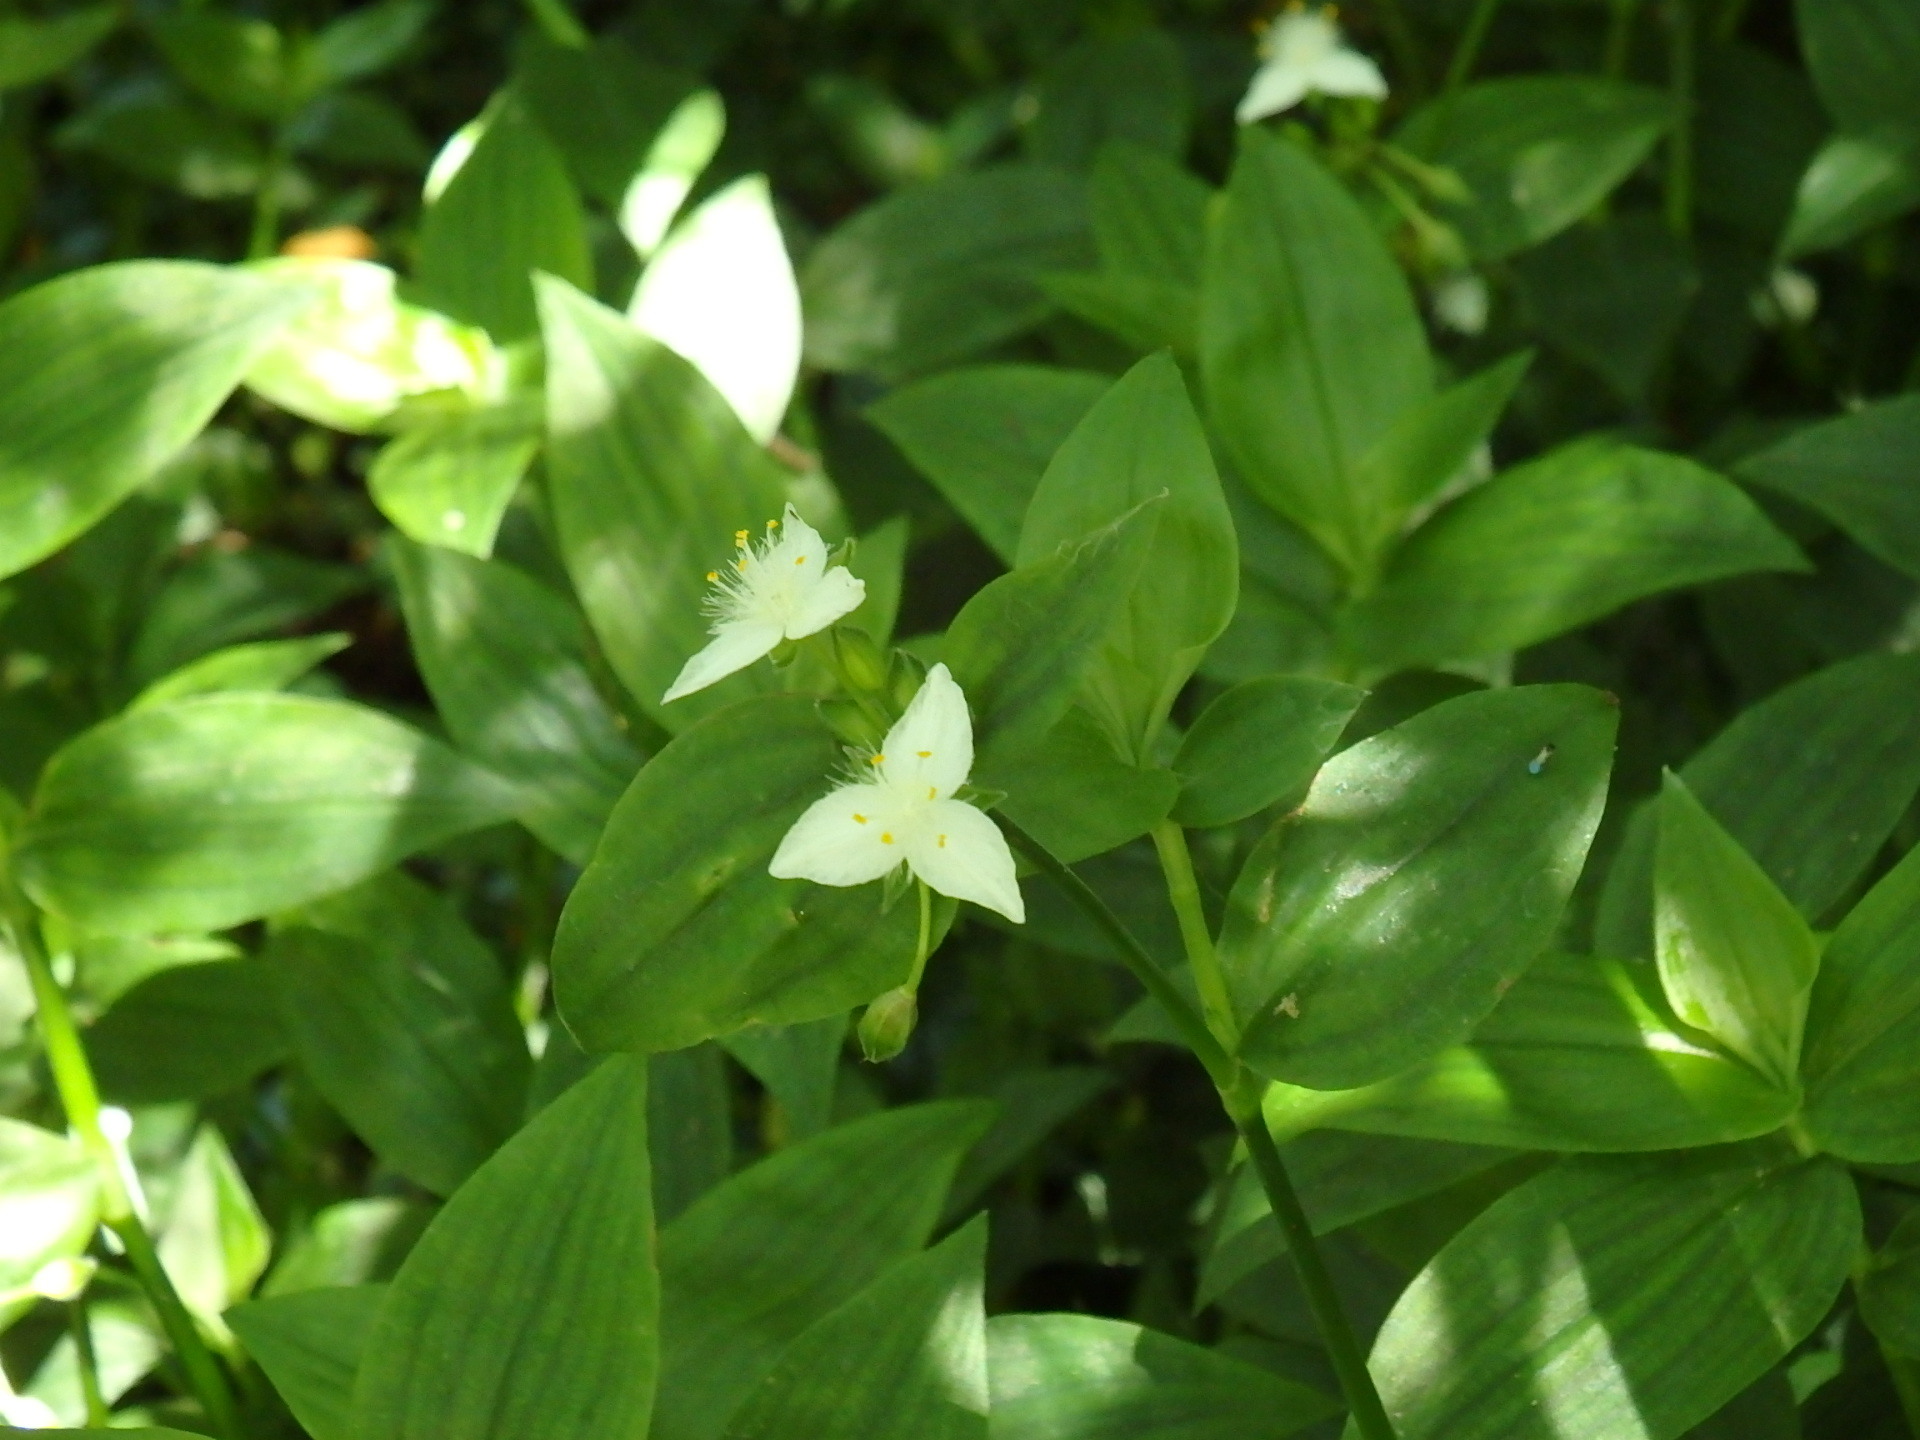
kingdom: Plantae
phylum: Tracheophyta
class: Liliopsida
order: Commelinales
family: Commelinaceae
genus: Tradescantia
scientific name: Tradescantia fluminensis
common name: Wandering-jew
